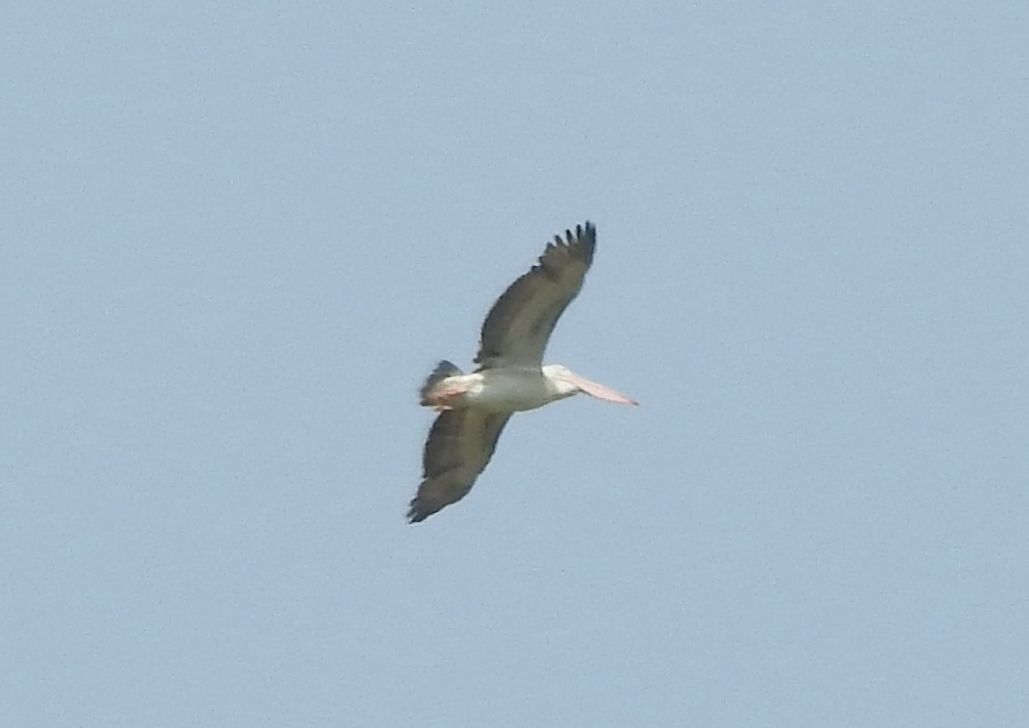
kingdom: Animalia
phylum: Chordata
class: Aves
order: Pelecaniformes
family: Pelecanidae
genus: Pelecanus
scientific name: Pelecanus philippensis
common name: Spot-billed pelican
